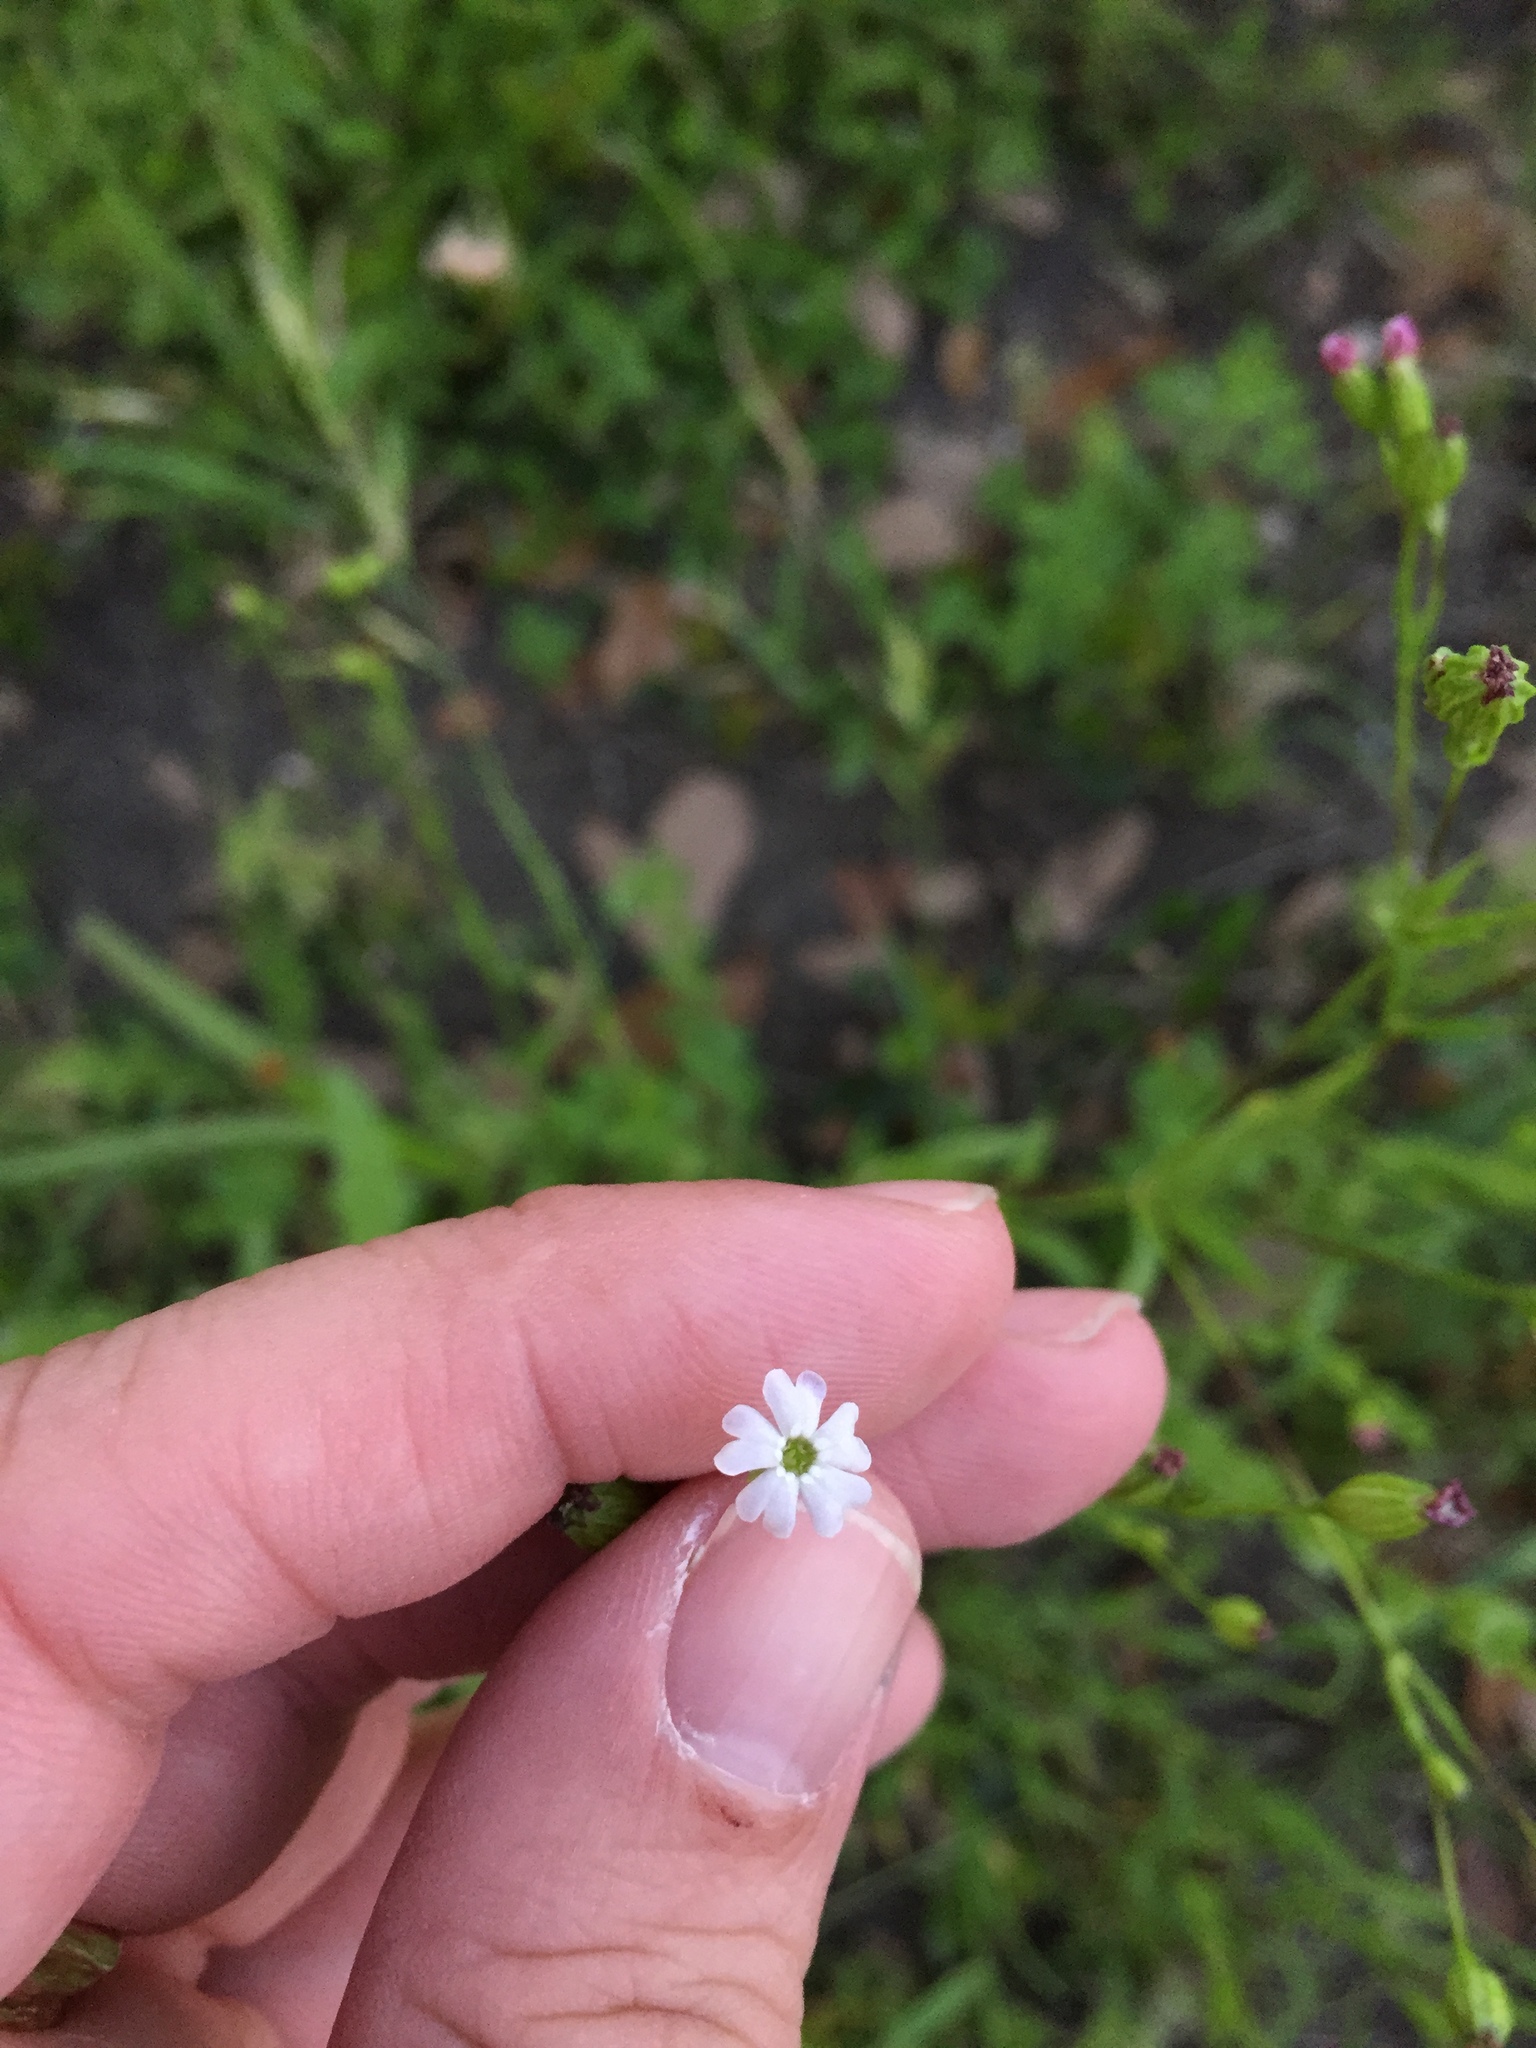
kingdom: Plantae
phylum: Tracheophyta
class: Magnoliopsida
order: Caryophyllales
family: Caryophyllaceae
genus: Silene
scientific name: Silene antirrhina
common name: Sleepy catchfly
